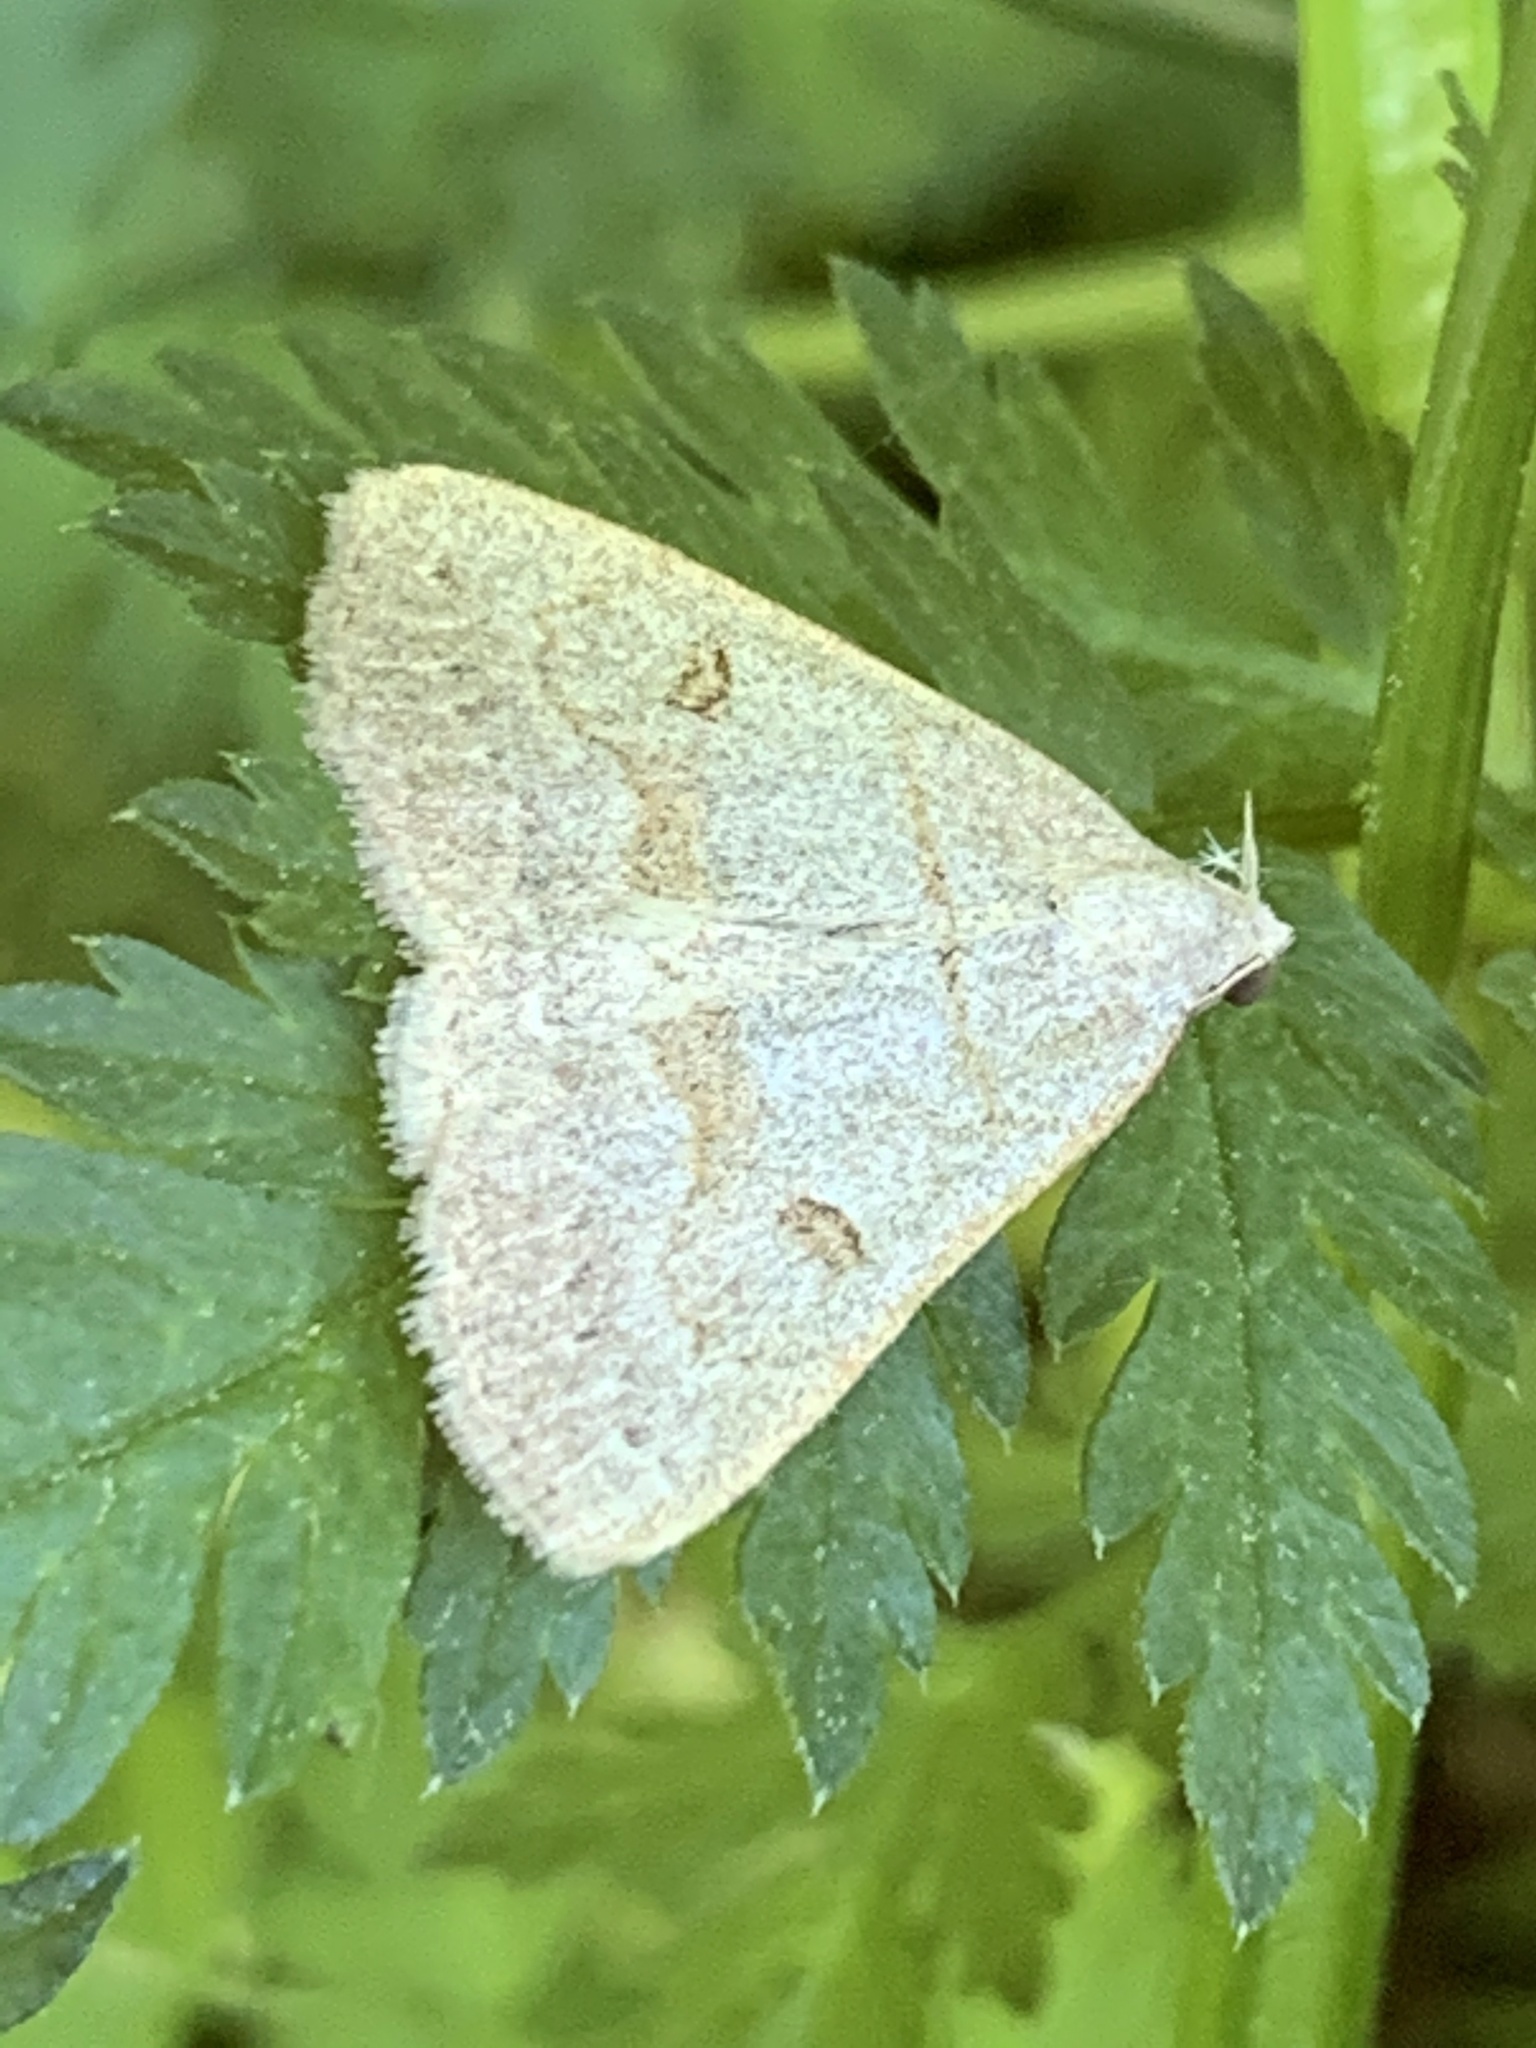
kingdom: Animalia
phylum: Arthropoda
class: Insecta
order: Lepidoptera
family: Erebidae
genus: Macrochilo
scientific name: Macrochilo morbidalis
